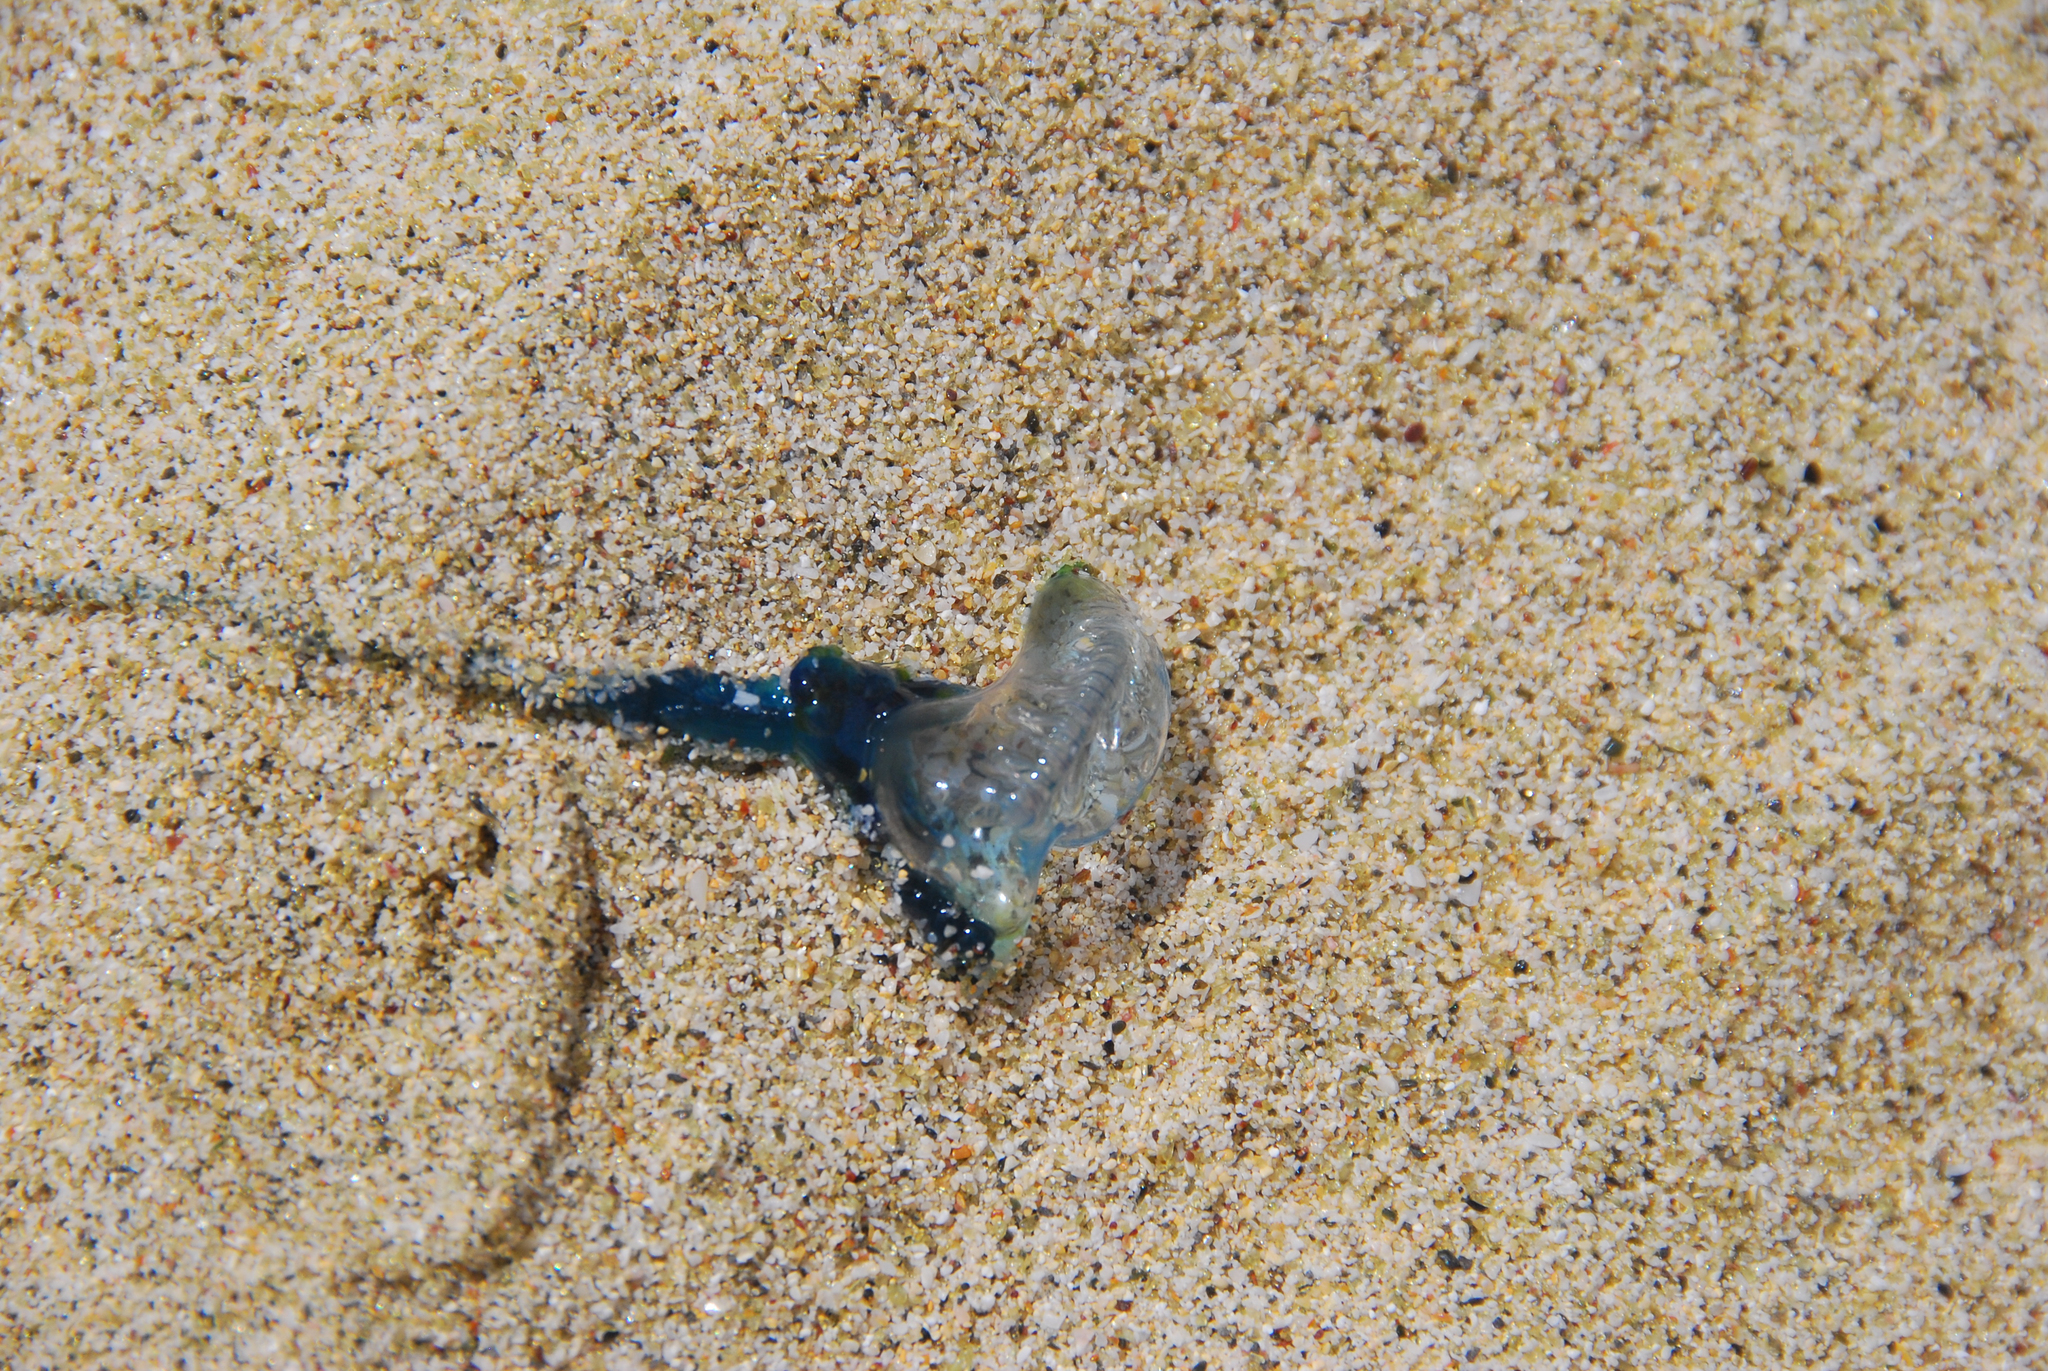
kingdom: Animalia
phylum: Cnidaria
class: Hydrozoa
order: Siphonophorae
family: Physaliidae
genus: Physalia
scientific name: Physalia physalis
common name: Portuguese man-of-war
